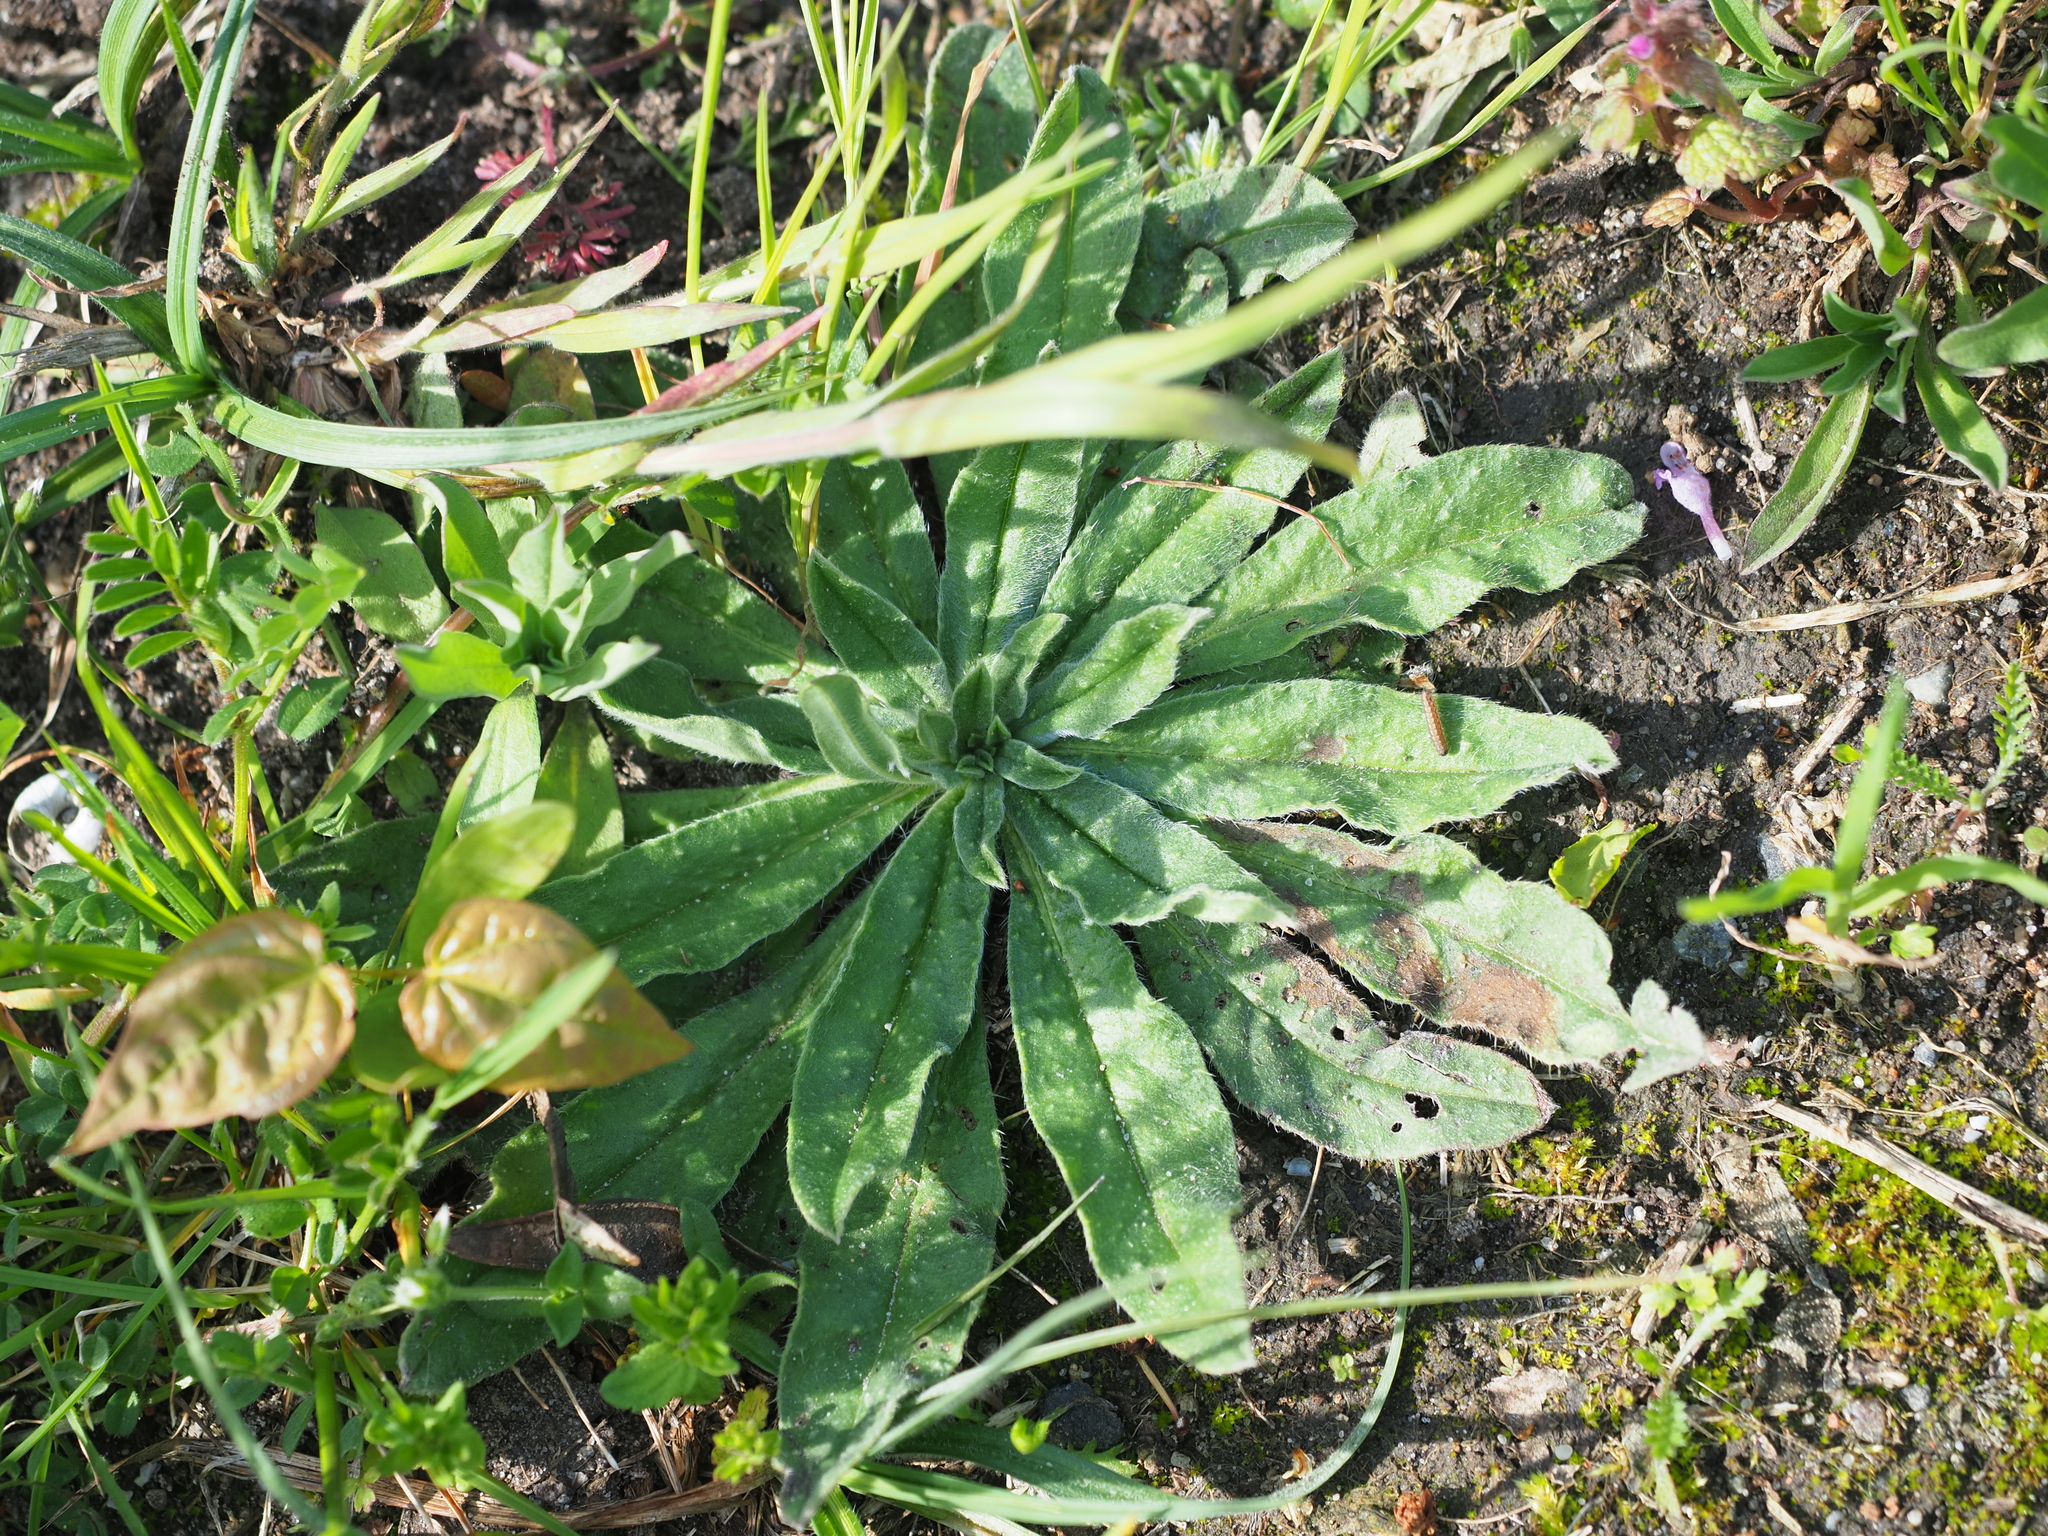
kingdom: Plantae
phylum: Tracheophyta
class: Magnoliopsida
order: Boraginales
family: Boraginaceae
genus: Echium
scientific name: Echium vulgare
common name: Common viper's bugloss
